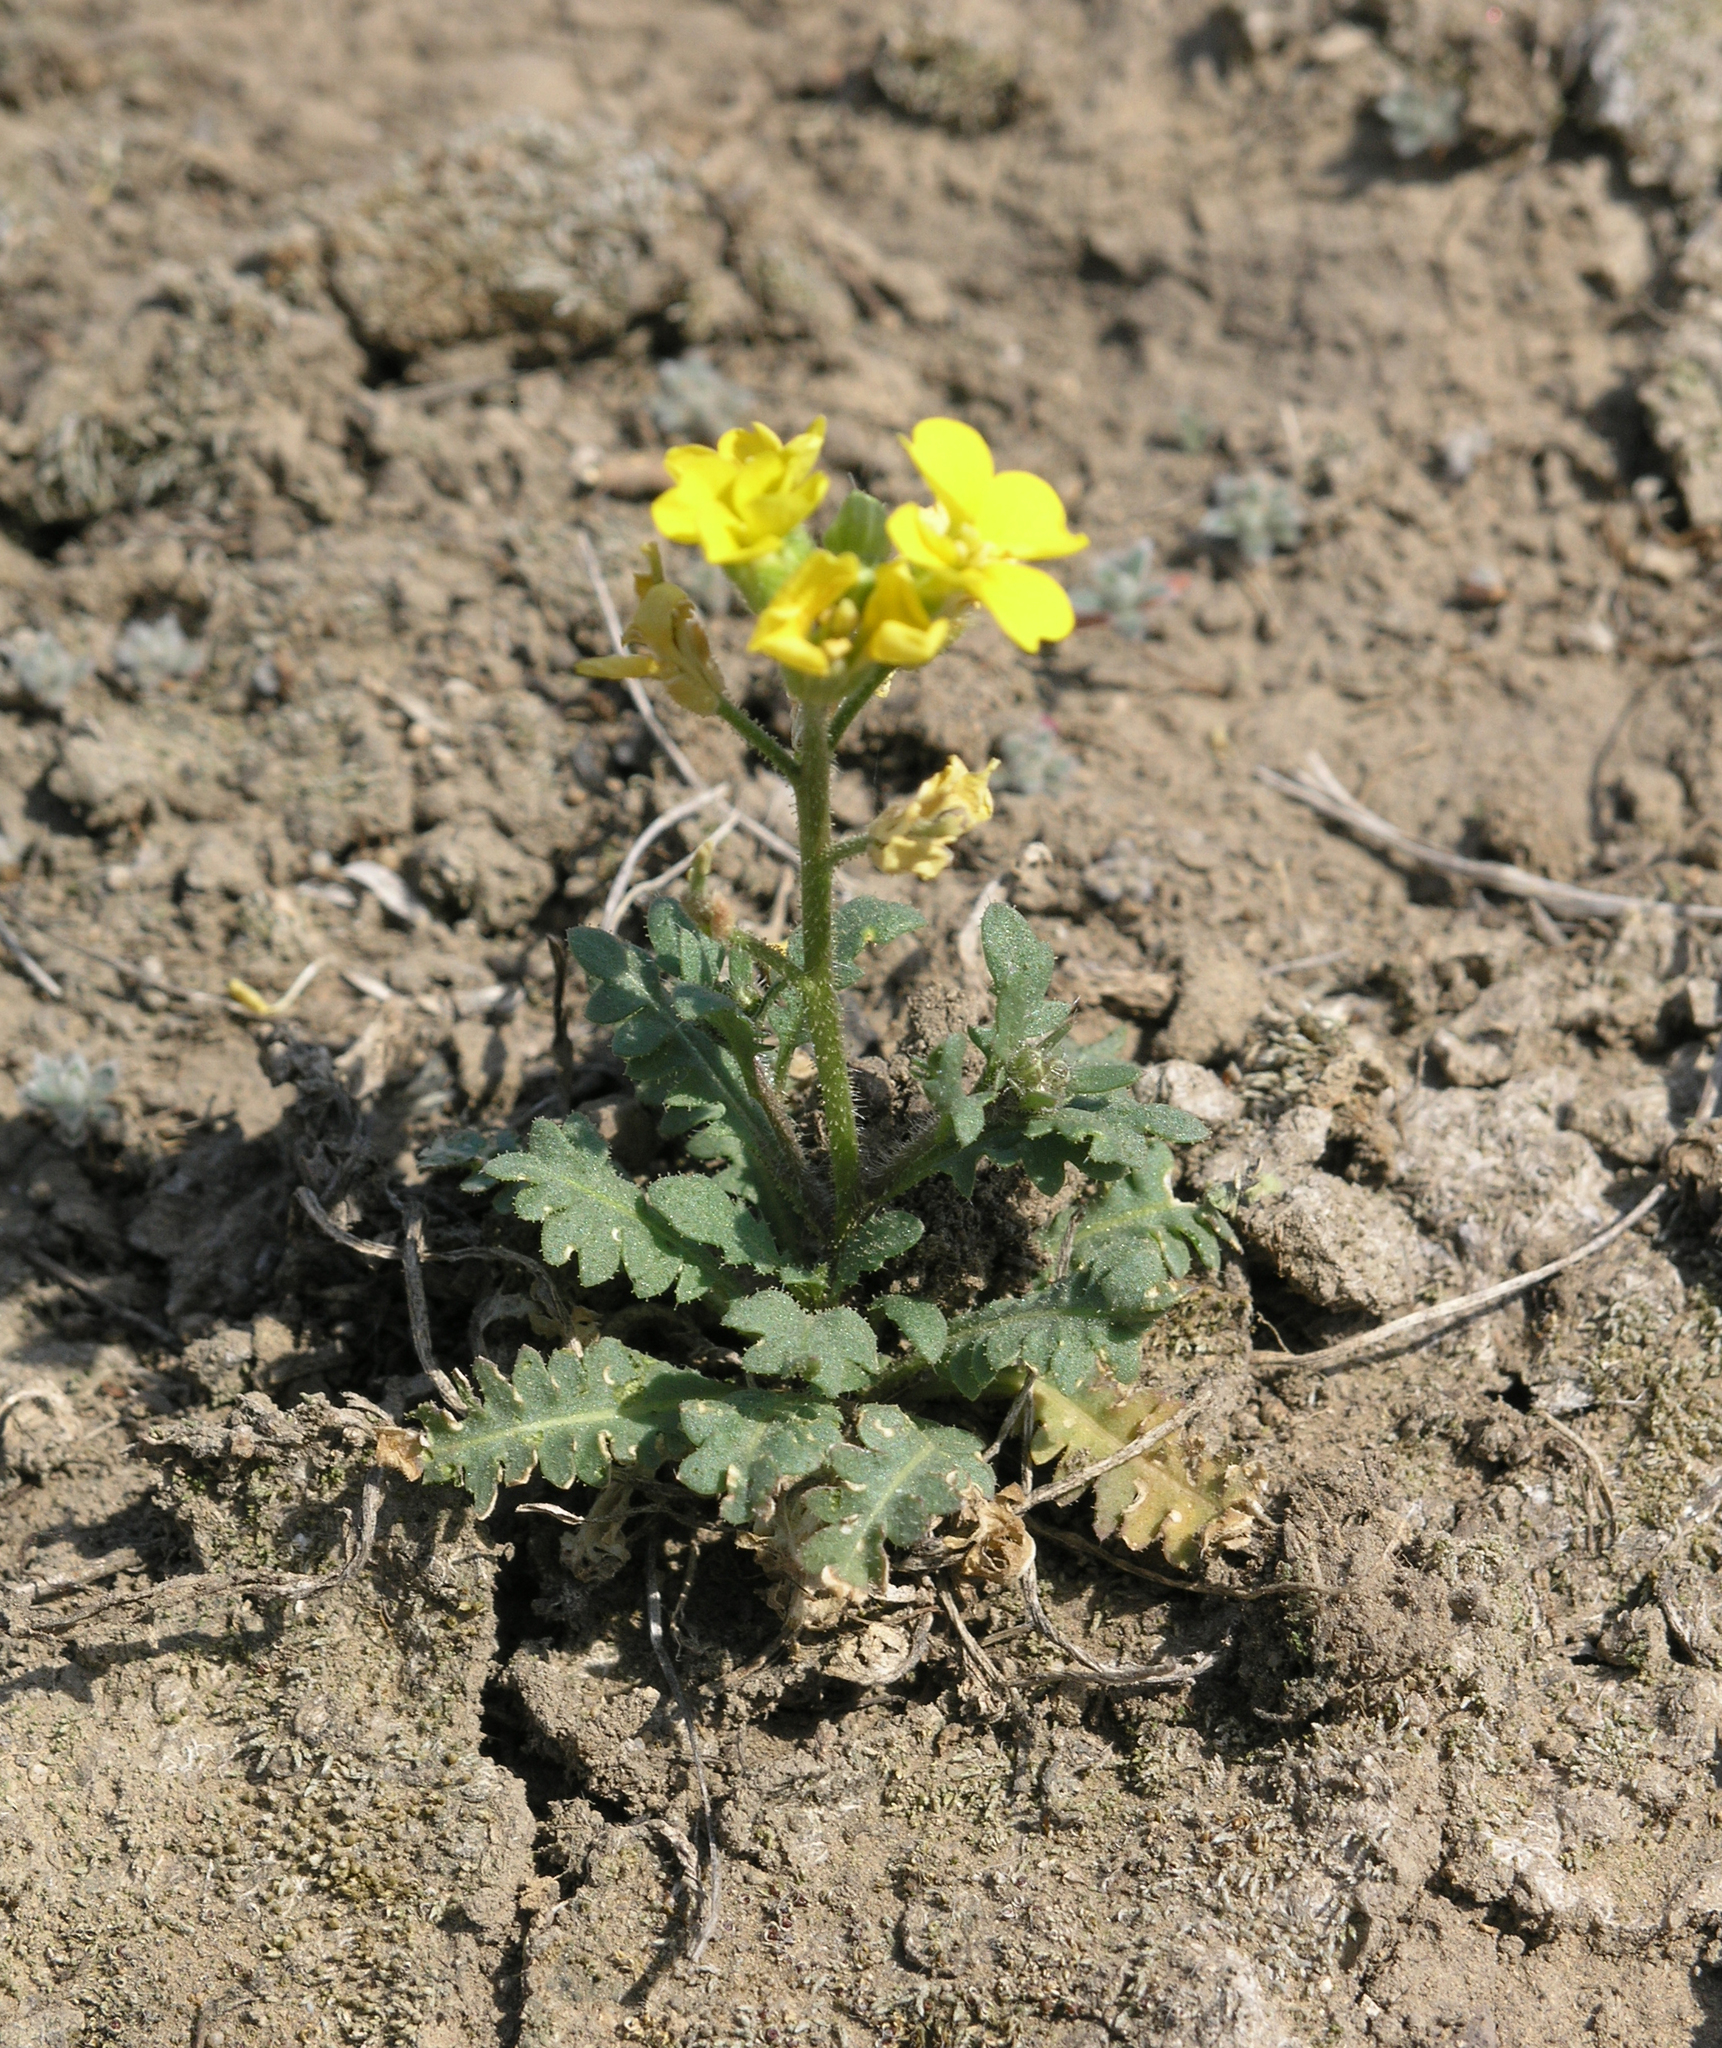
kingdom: Plantae
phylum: Tracheophyta
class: Magnoliopsida
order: Brassicales
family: Brassicaceae
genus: Chorispora
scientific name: Chorispora sibirica
